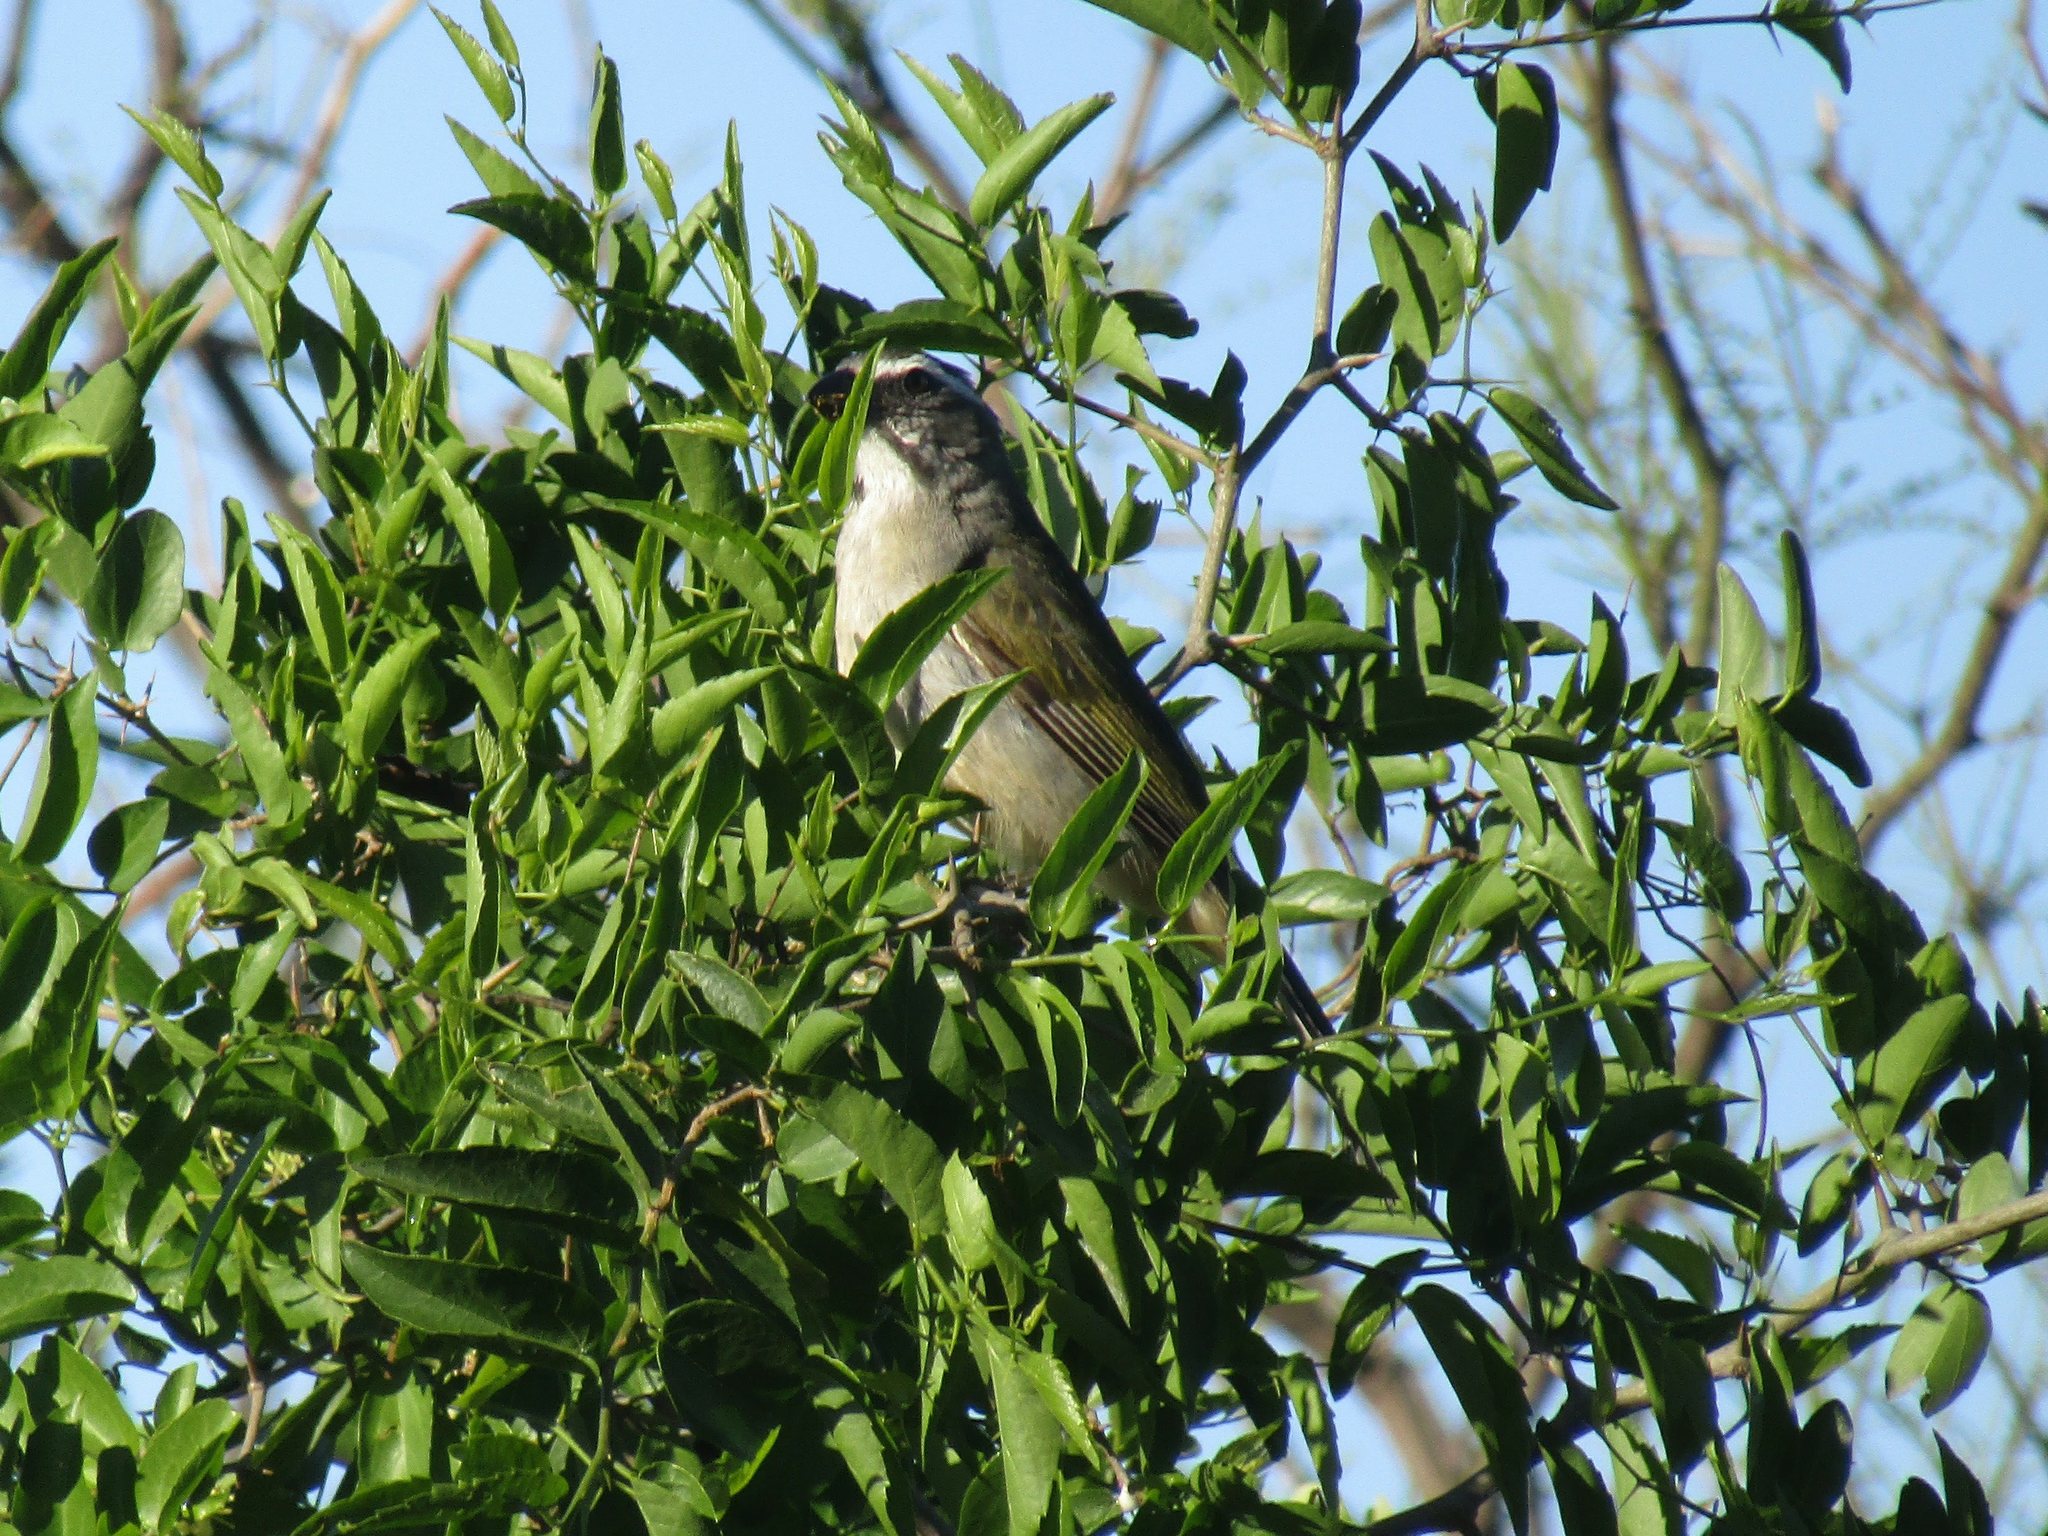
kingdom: Animalia
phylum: Chordata
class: Aves
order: Passeriformes
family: Thraupidae
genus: Saltator
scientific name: Saltator similis
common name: Green-winged saltator
